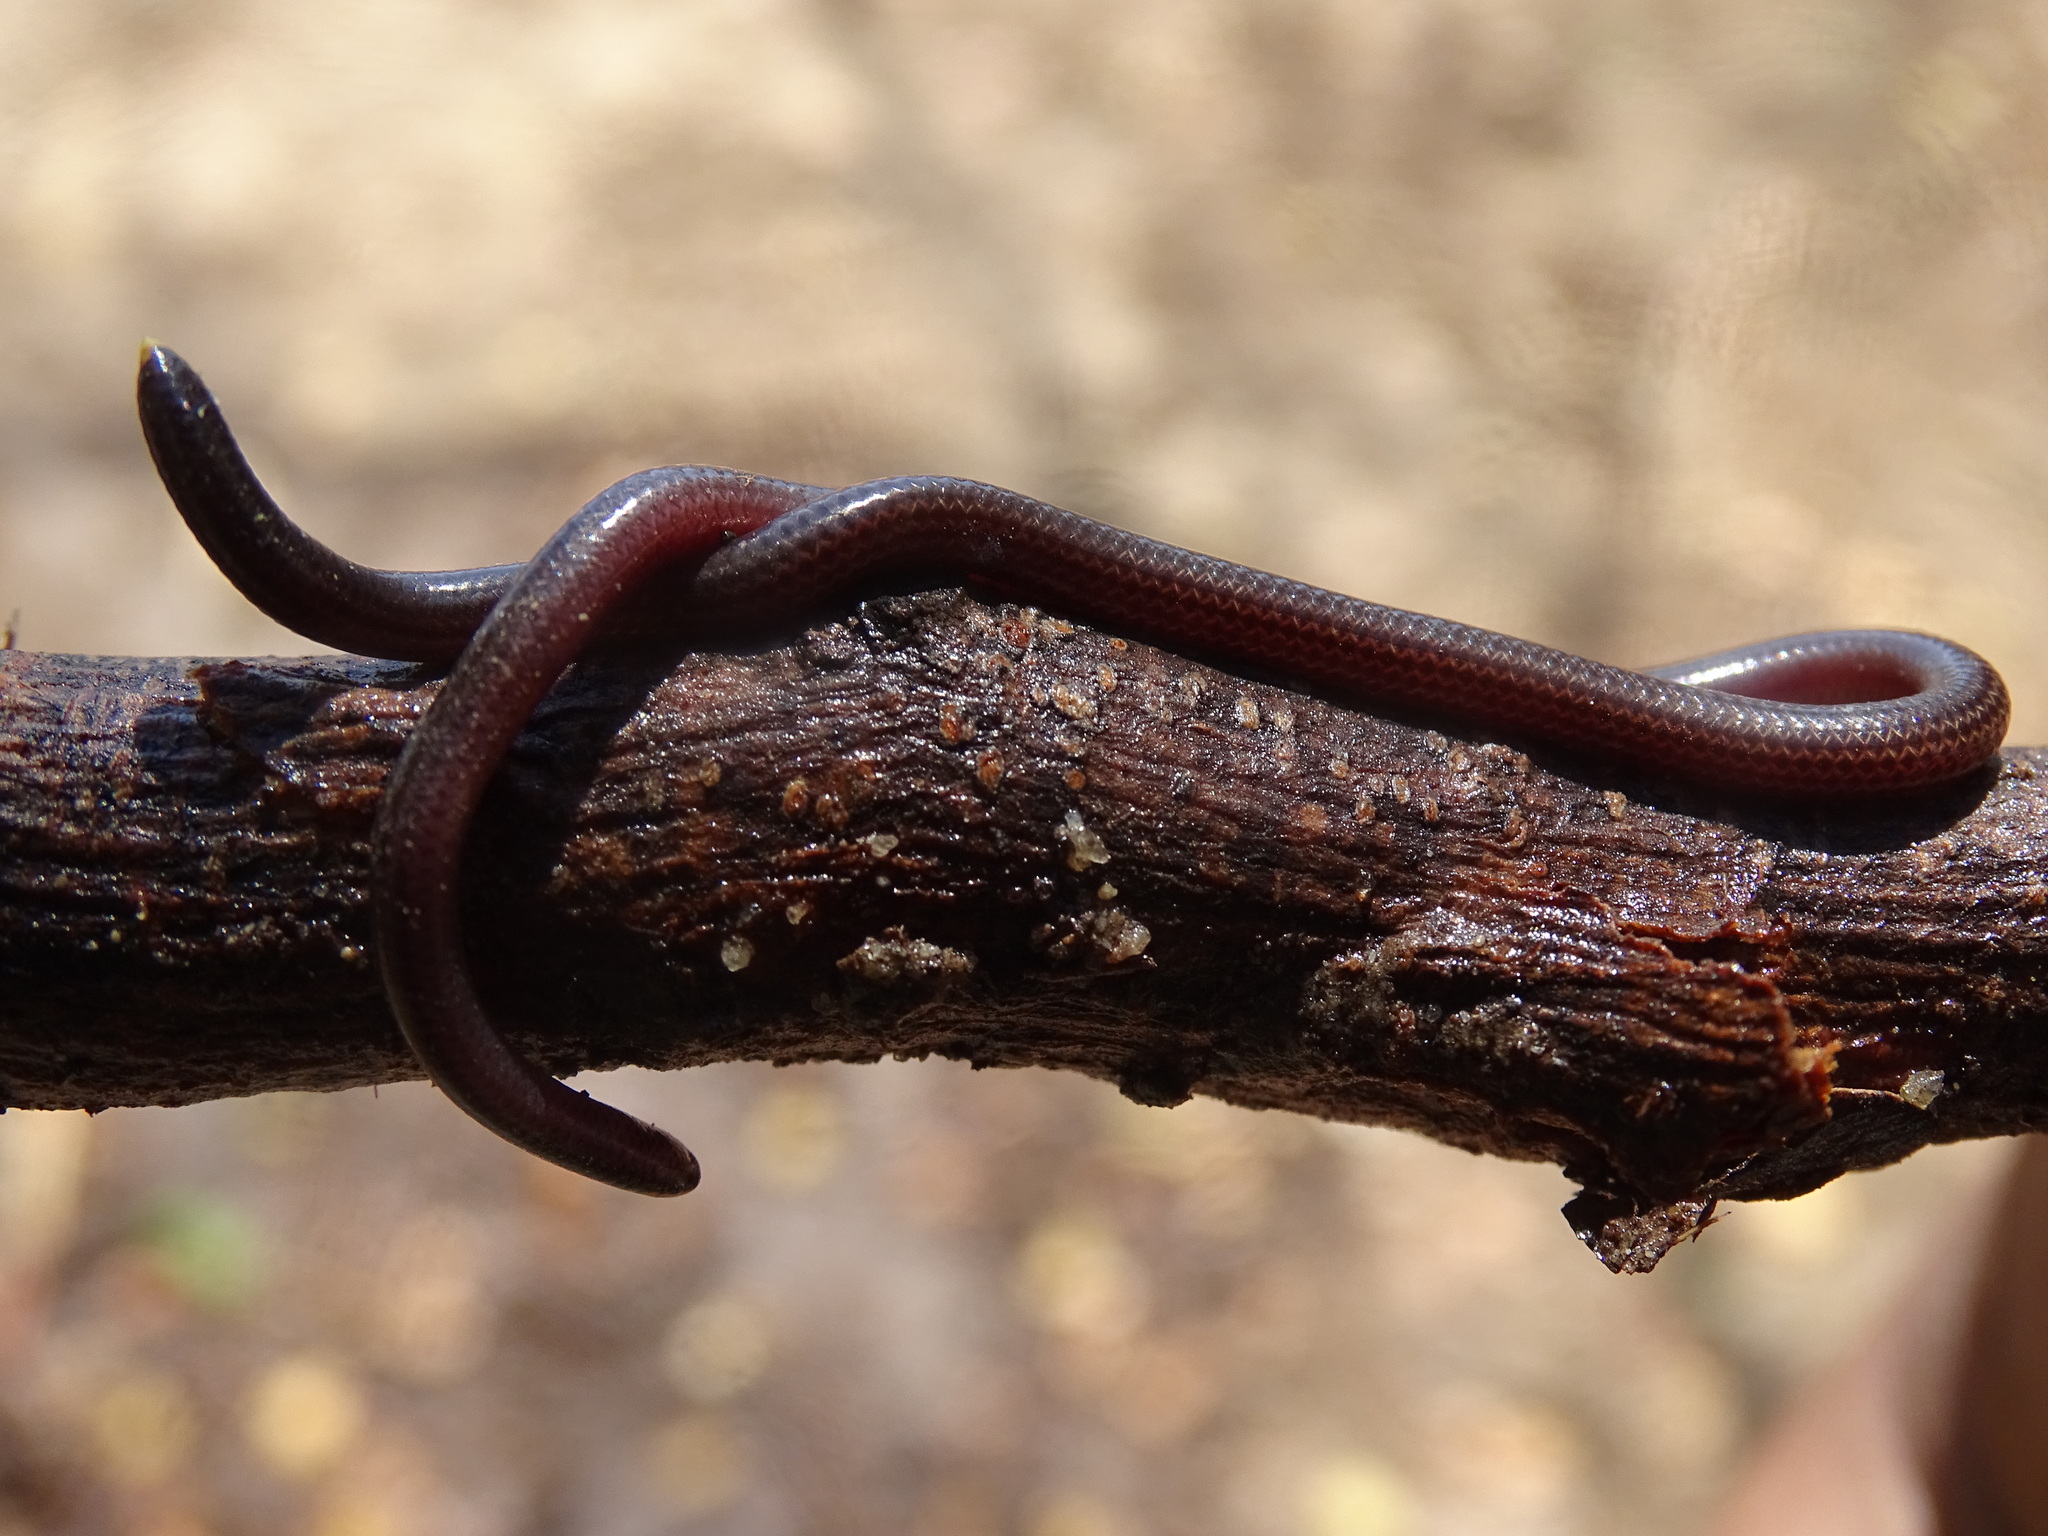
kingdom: Animalia
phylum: Chordata
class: Squamata
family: Leptotyphlopidae
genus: Epictia
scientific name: Epictia phenops
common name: Slinder threadsnake
